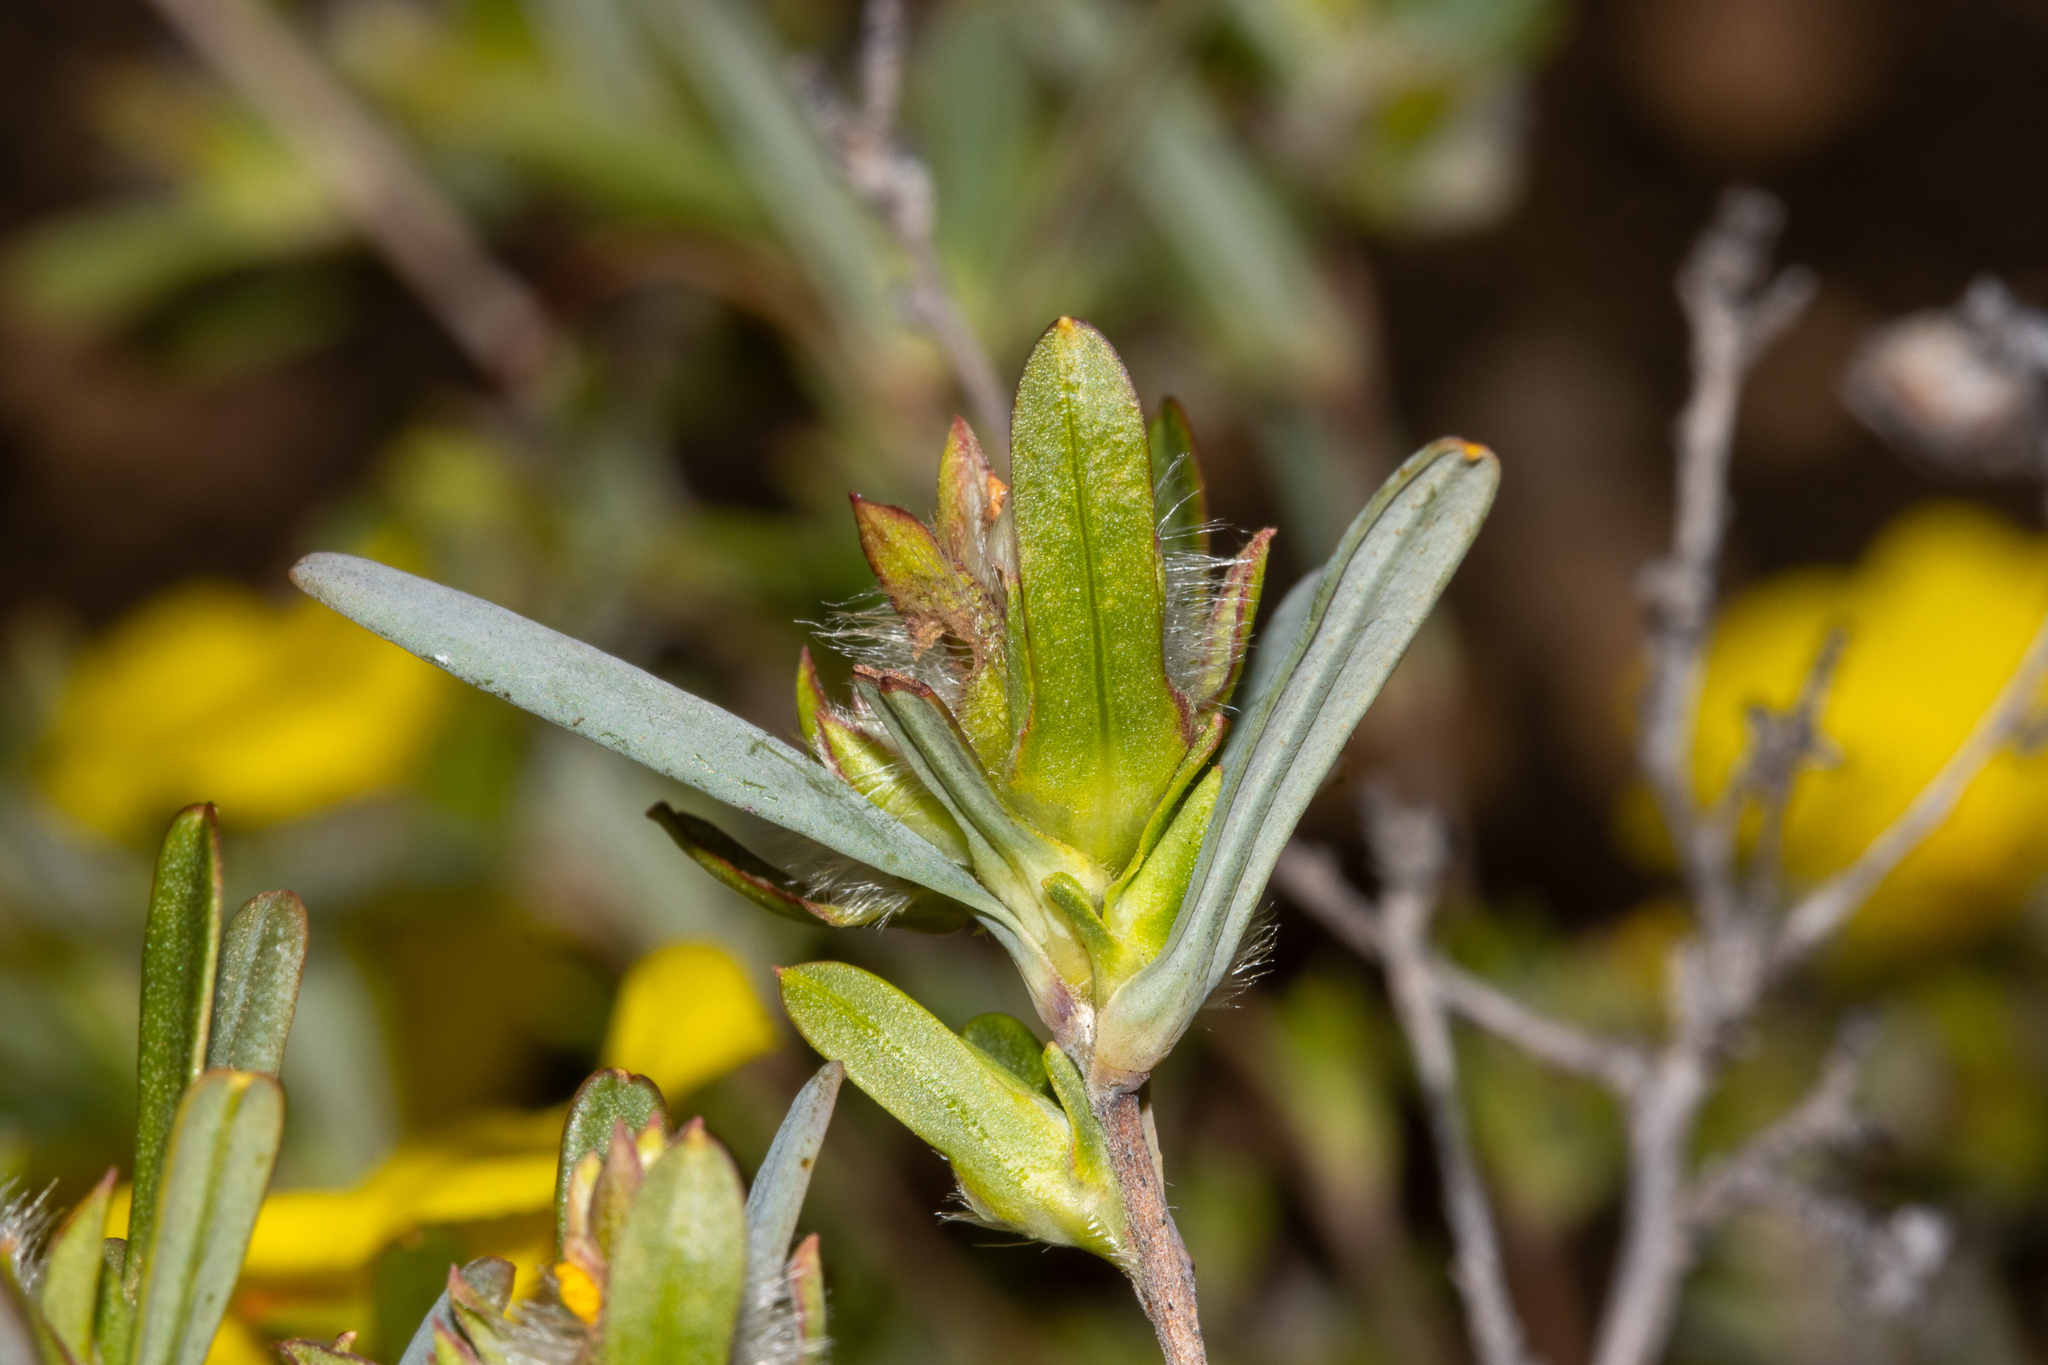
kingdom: Plantae
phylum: Tracheophyta
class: Magnoliopsida
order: Dilleniales
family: Dilleniaceae
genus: Hibbertia
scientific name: Hibbertia glomerosa
